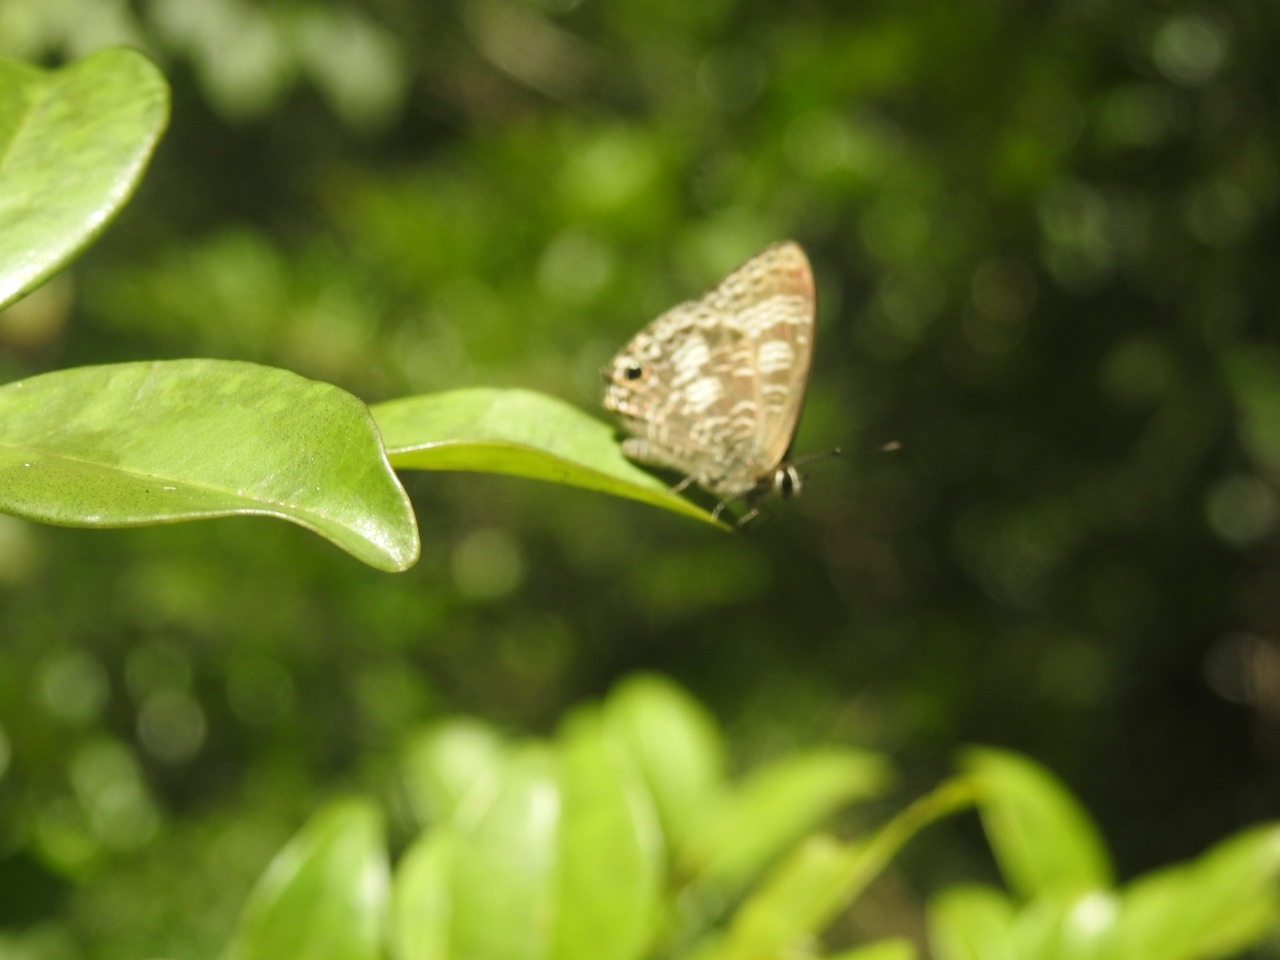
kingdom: Animalia
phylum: Arthropoda
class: Insecta
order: Lepidoptera
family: Lycaenidae
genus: Nacaduba
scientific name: Nacaduba kurava
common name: Transparent 6-line blue
